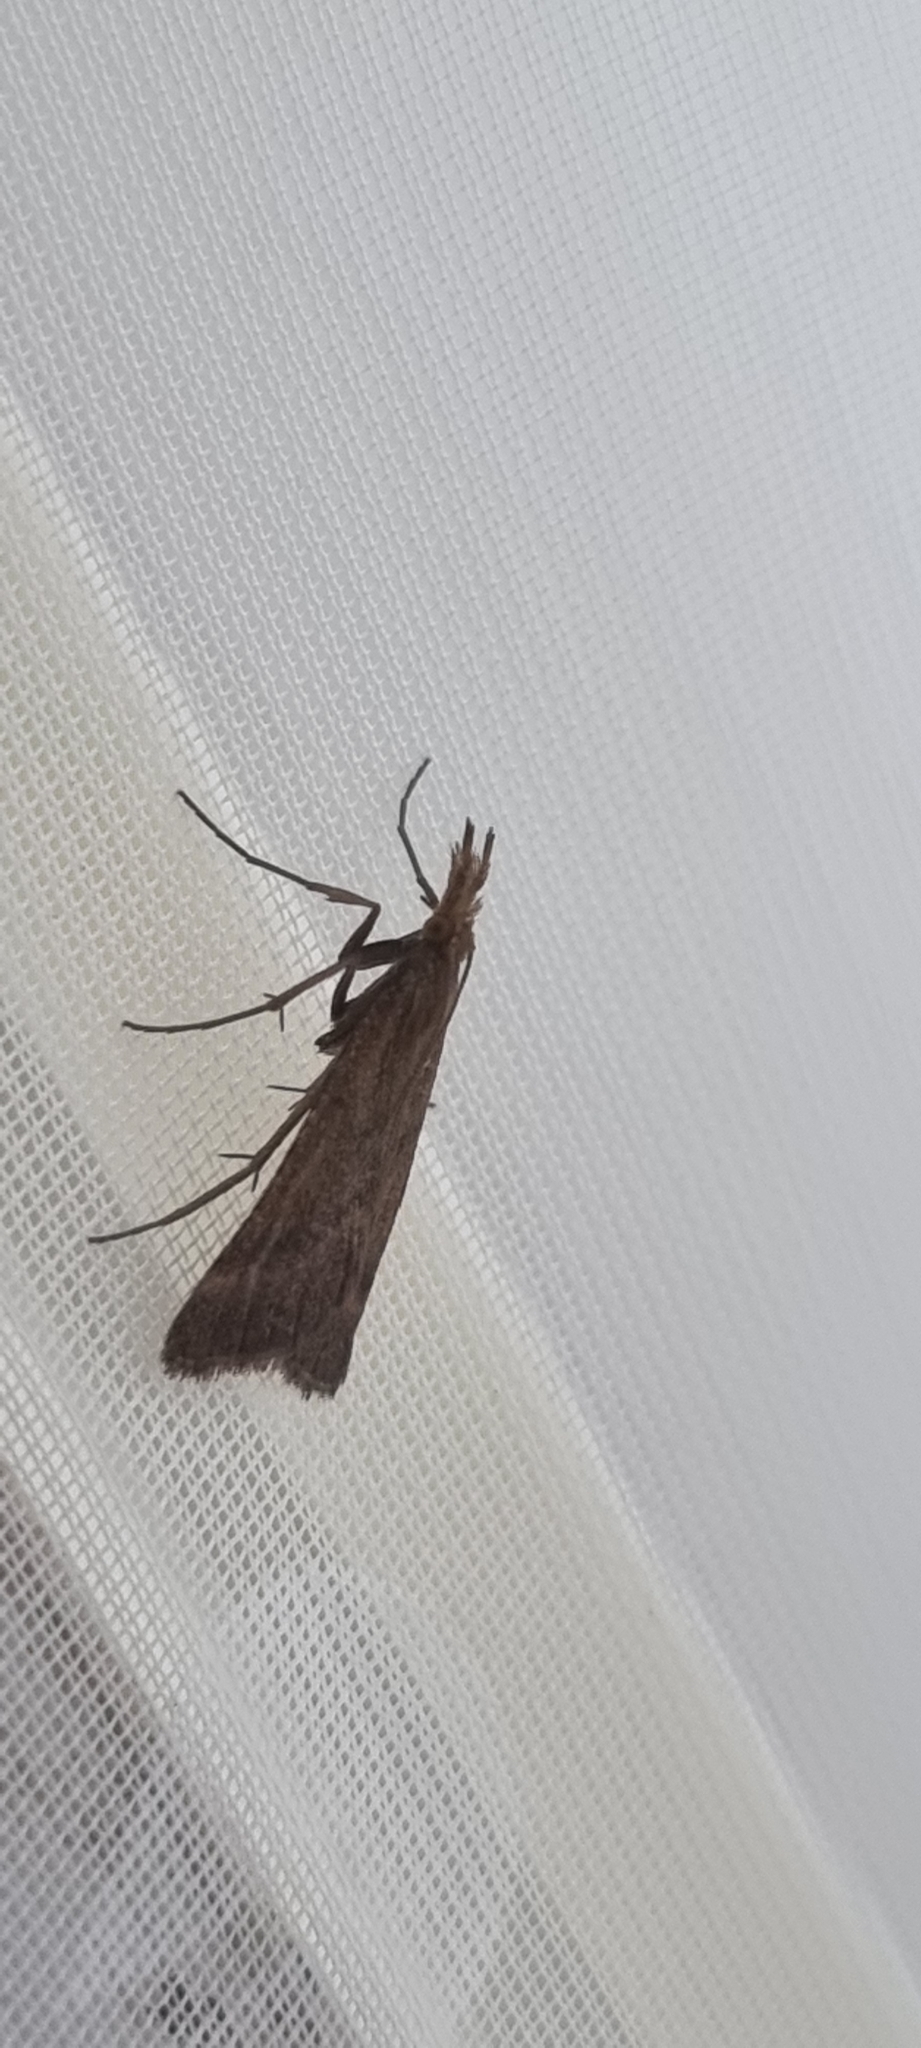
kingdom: Animalia
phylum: Arthropoda
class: Insecta
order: Lepidoptera
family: Pyralidae
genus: Synaphe
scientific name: Synaphe punctalis
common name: Long-legged tabby
